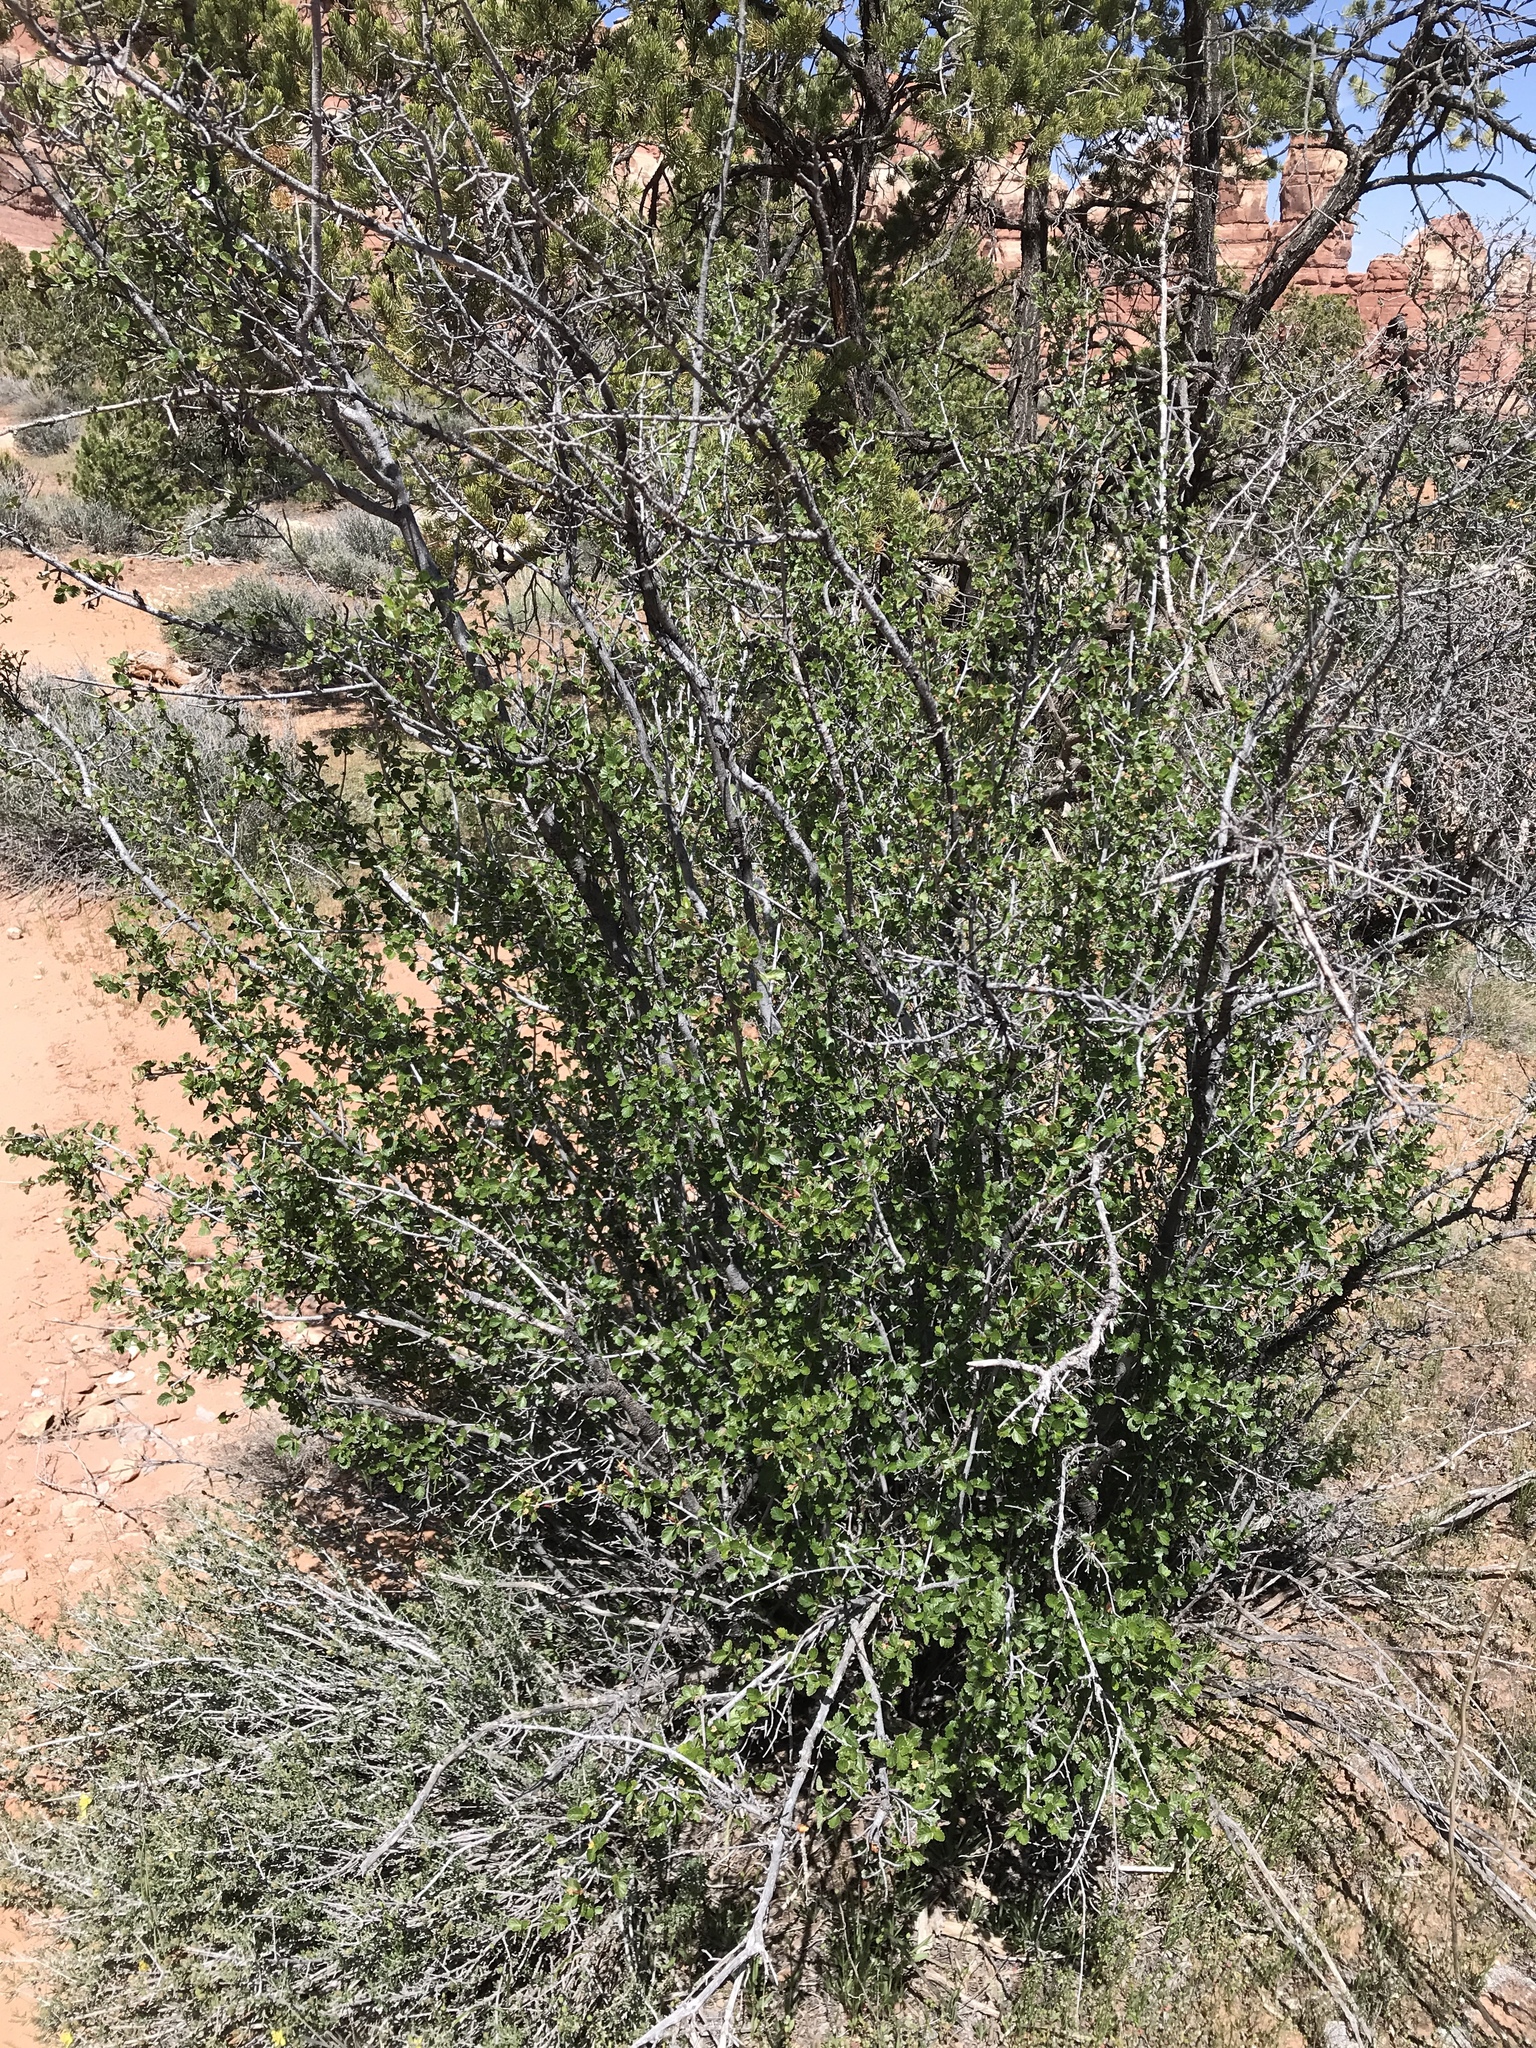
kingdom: Plantae
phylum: Tracheophyta
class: Magnoliopsida
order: Rosales
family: Rosaceae
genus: Cercocarpus
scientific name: Cercocarpus montanus
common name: Alder-leaf cercocarpus
